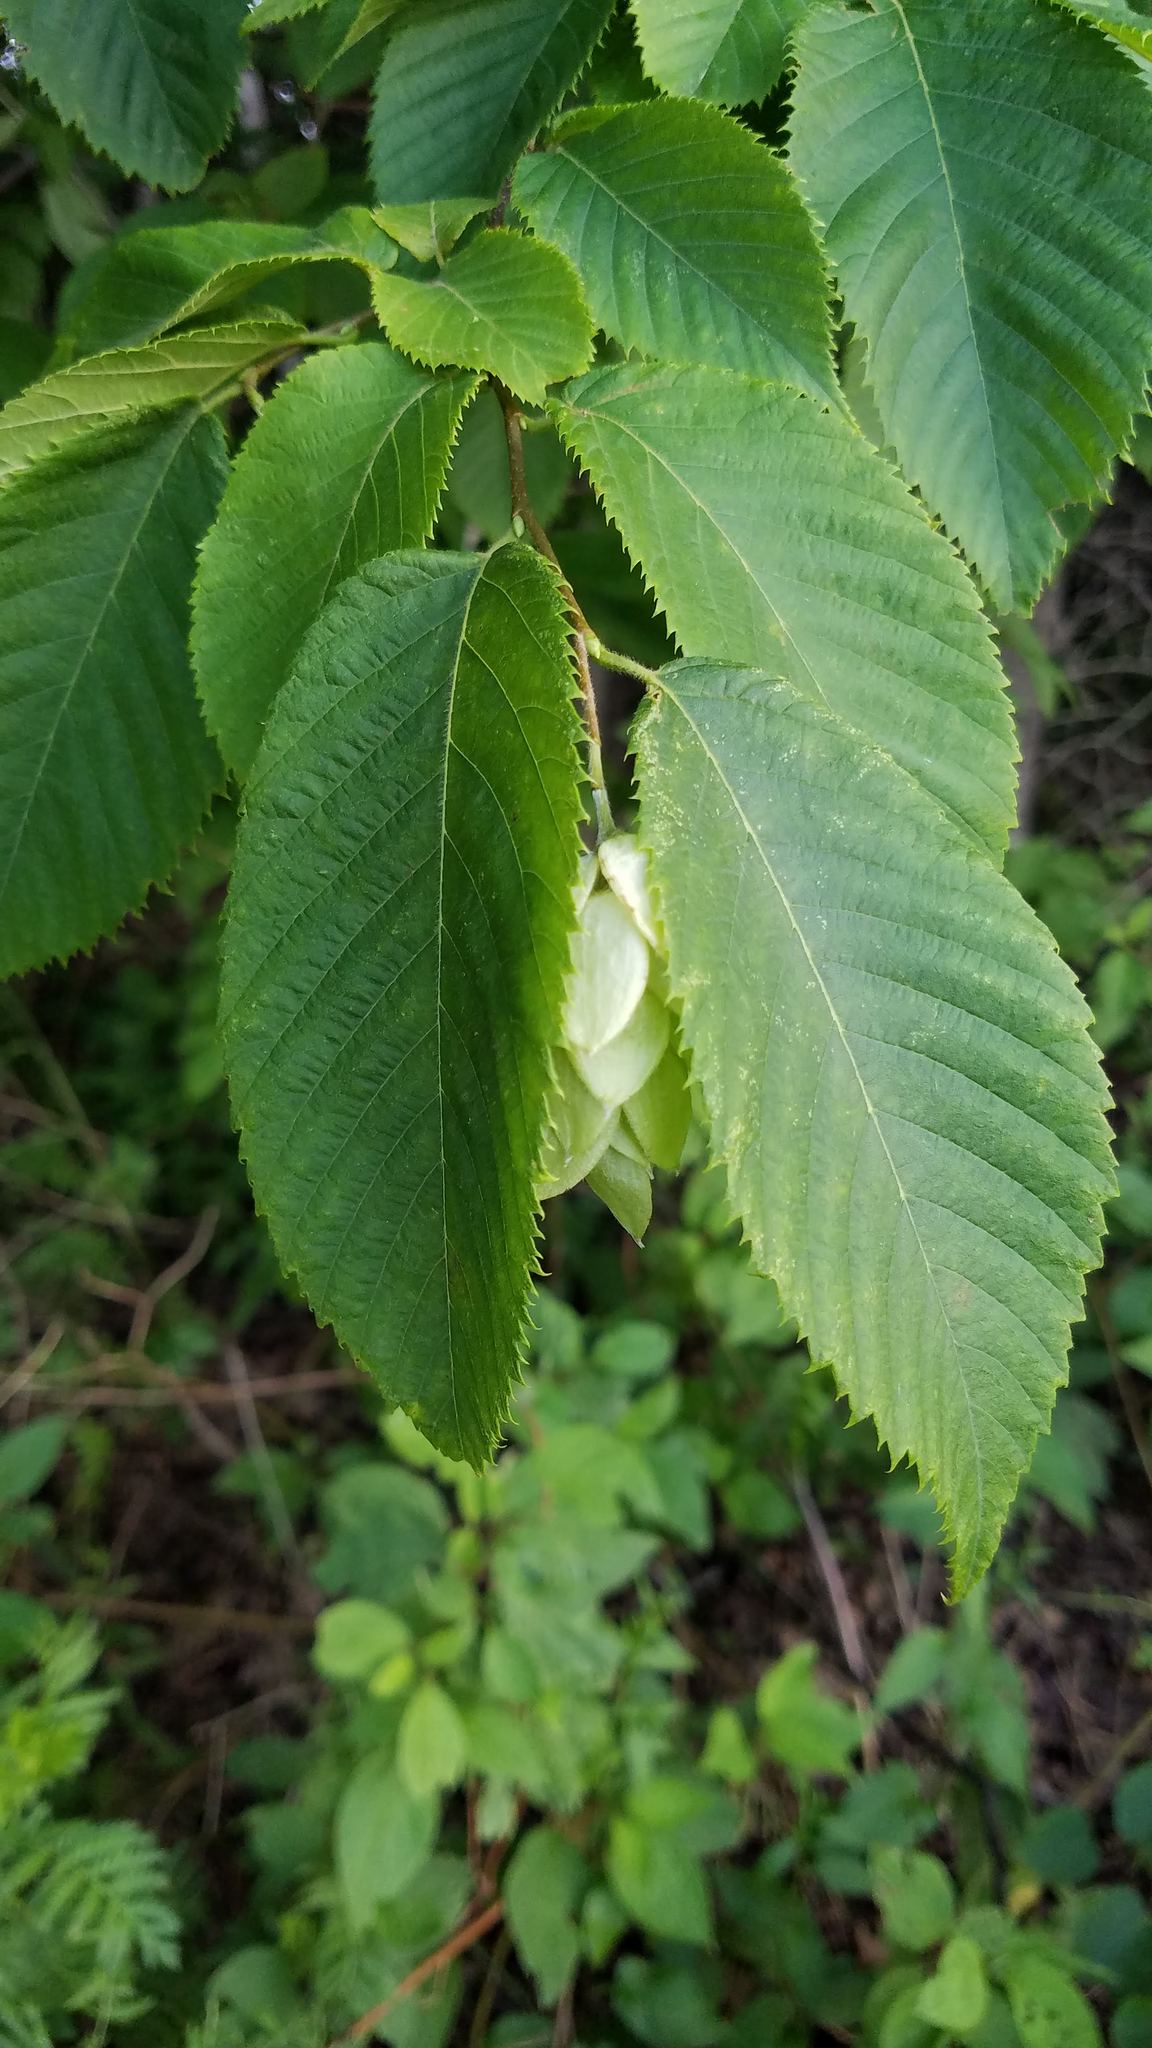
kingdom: Plantae
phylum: Tracheophyta
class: Magnoliopsida
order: Fagales
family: Betulaceae
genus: Ostrya
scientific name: Ostrya virginiana
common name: Ironwood
